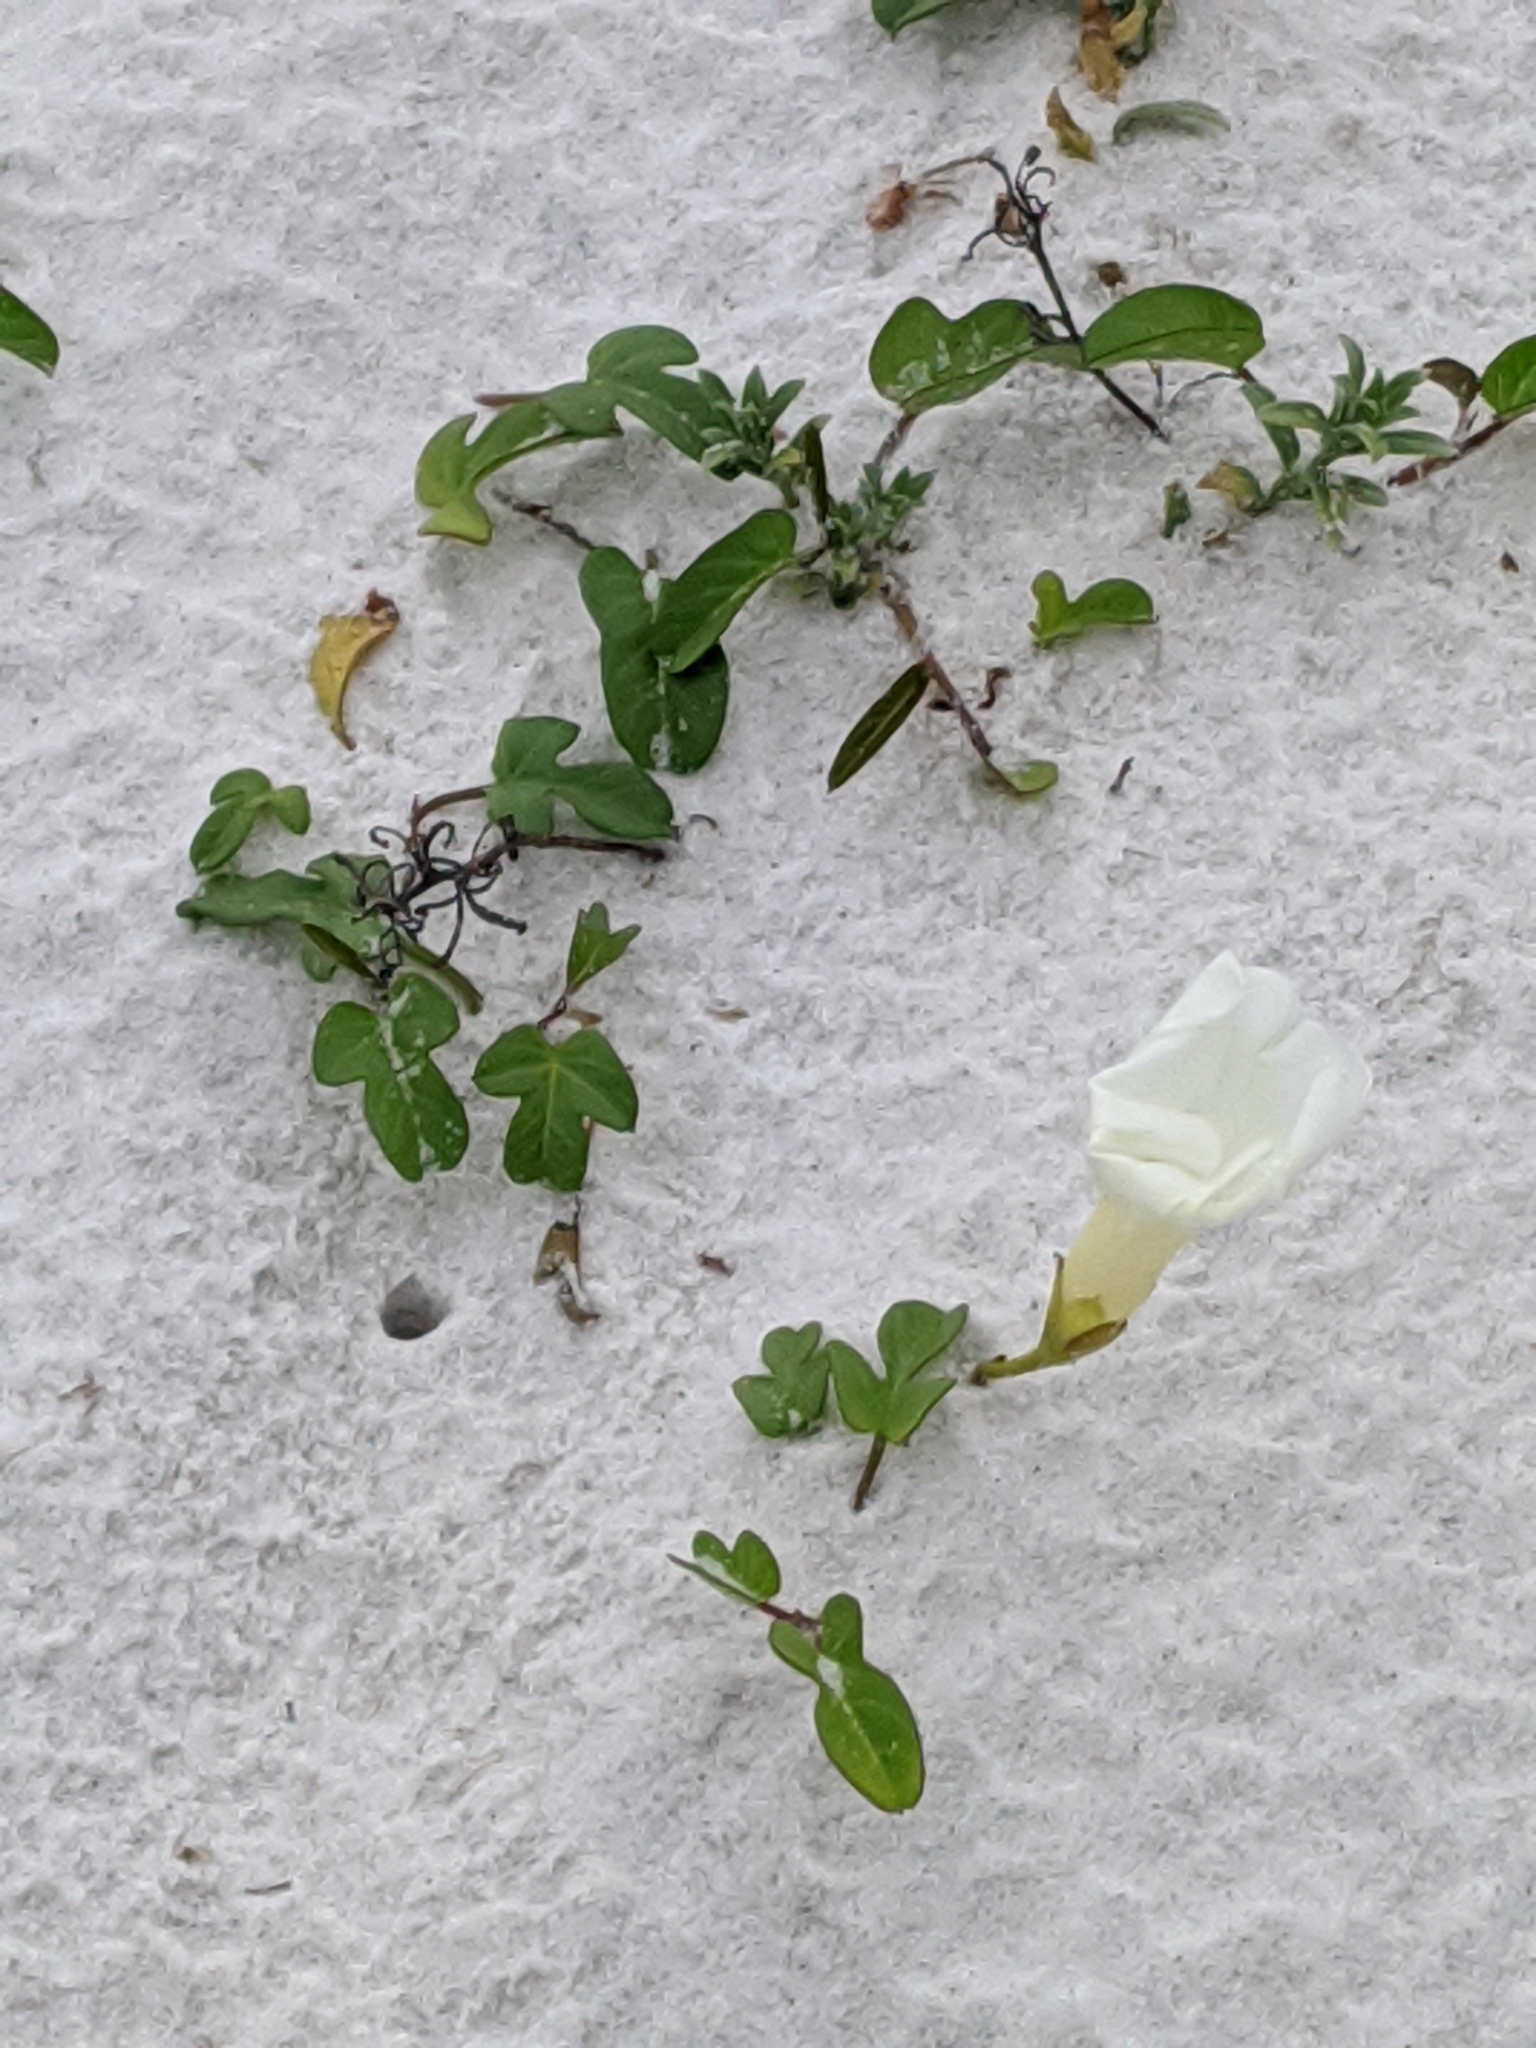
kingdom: Plantae
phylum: Tracheophyta
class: Magnoliopsida
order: Solanales
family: Convolvulaceae
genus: Ipomoea
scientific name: Ipomoea imperati
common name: Fiddle-leaf morning-glory
